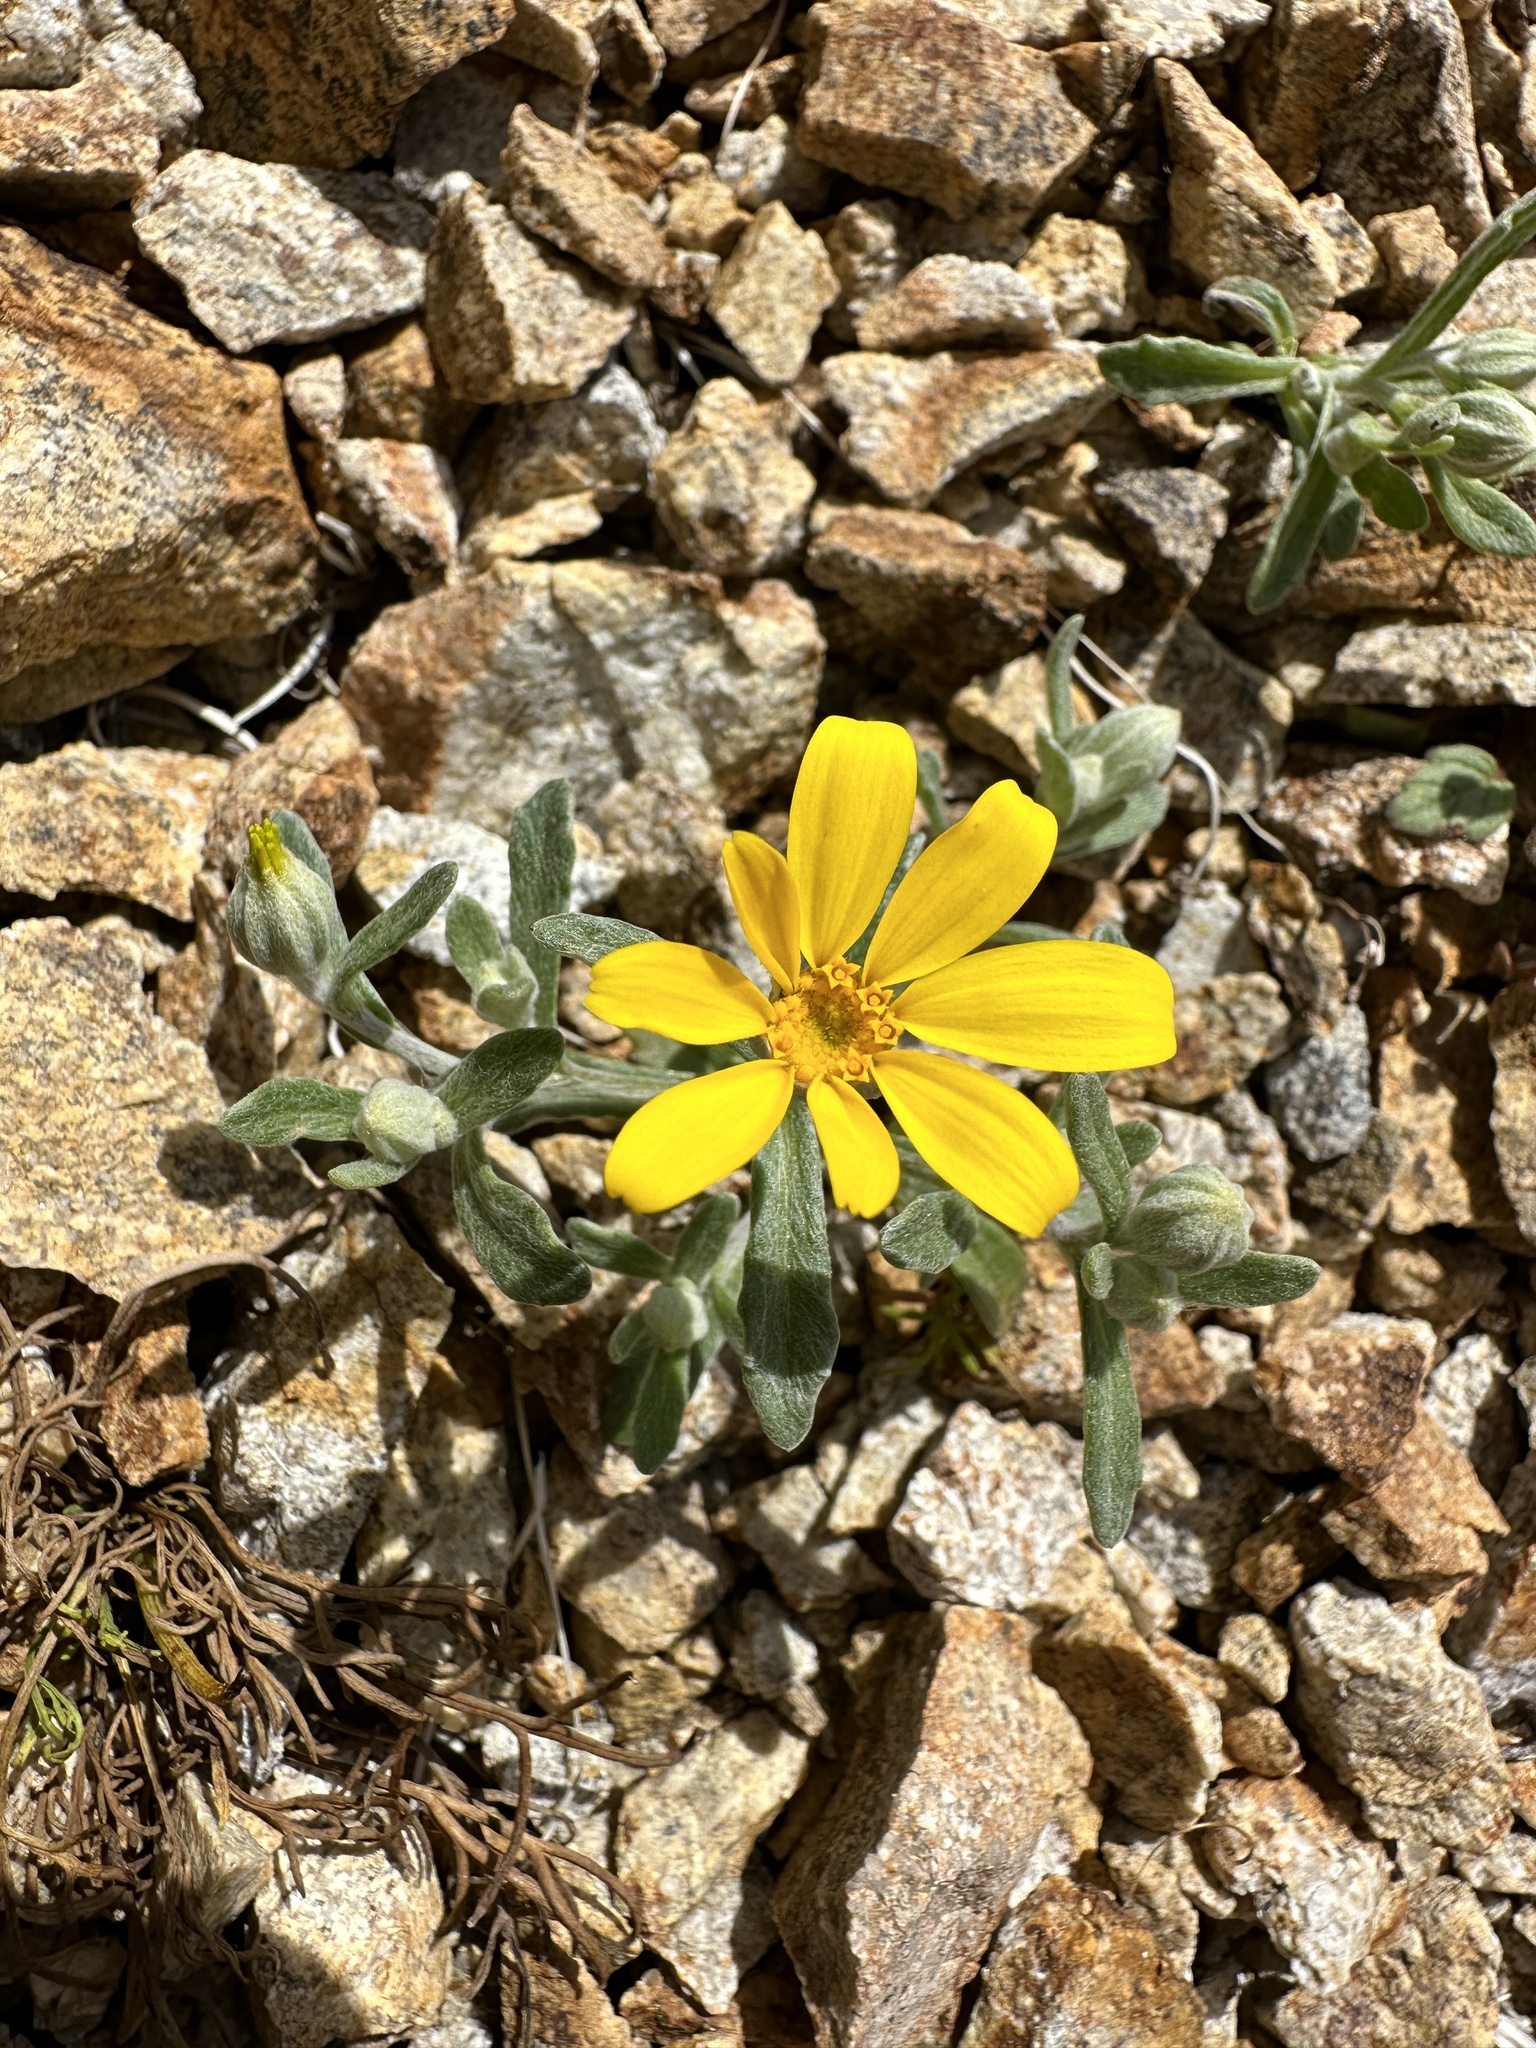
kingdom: Plantae
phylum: Tracheophyta
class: Magnoliopsida
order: Asterales
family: Asteraceae
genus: Eriophyllum
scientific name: Eriophyllum ambiguum
